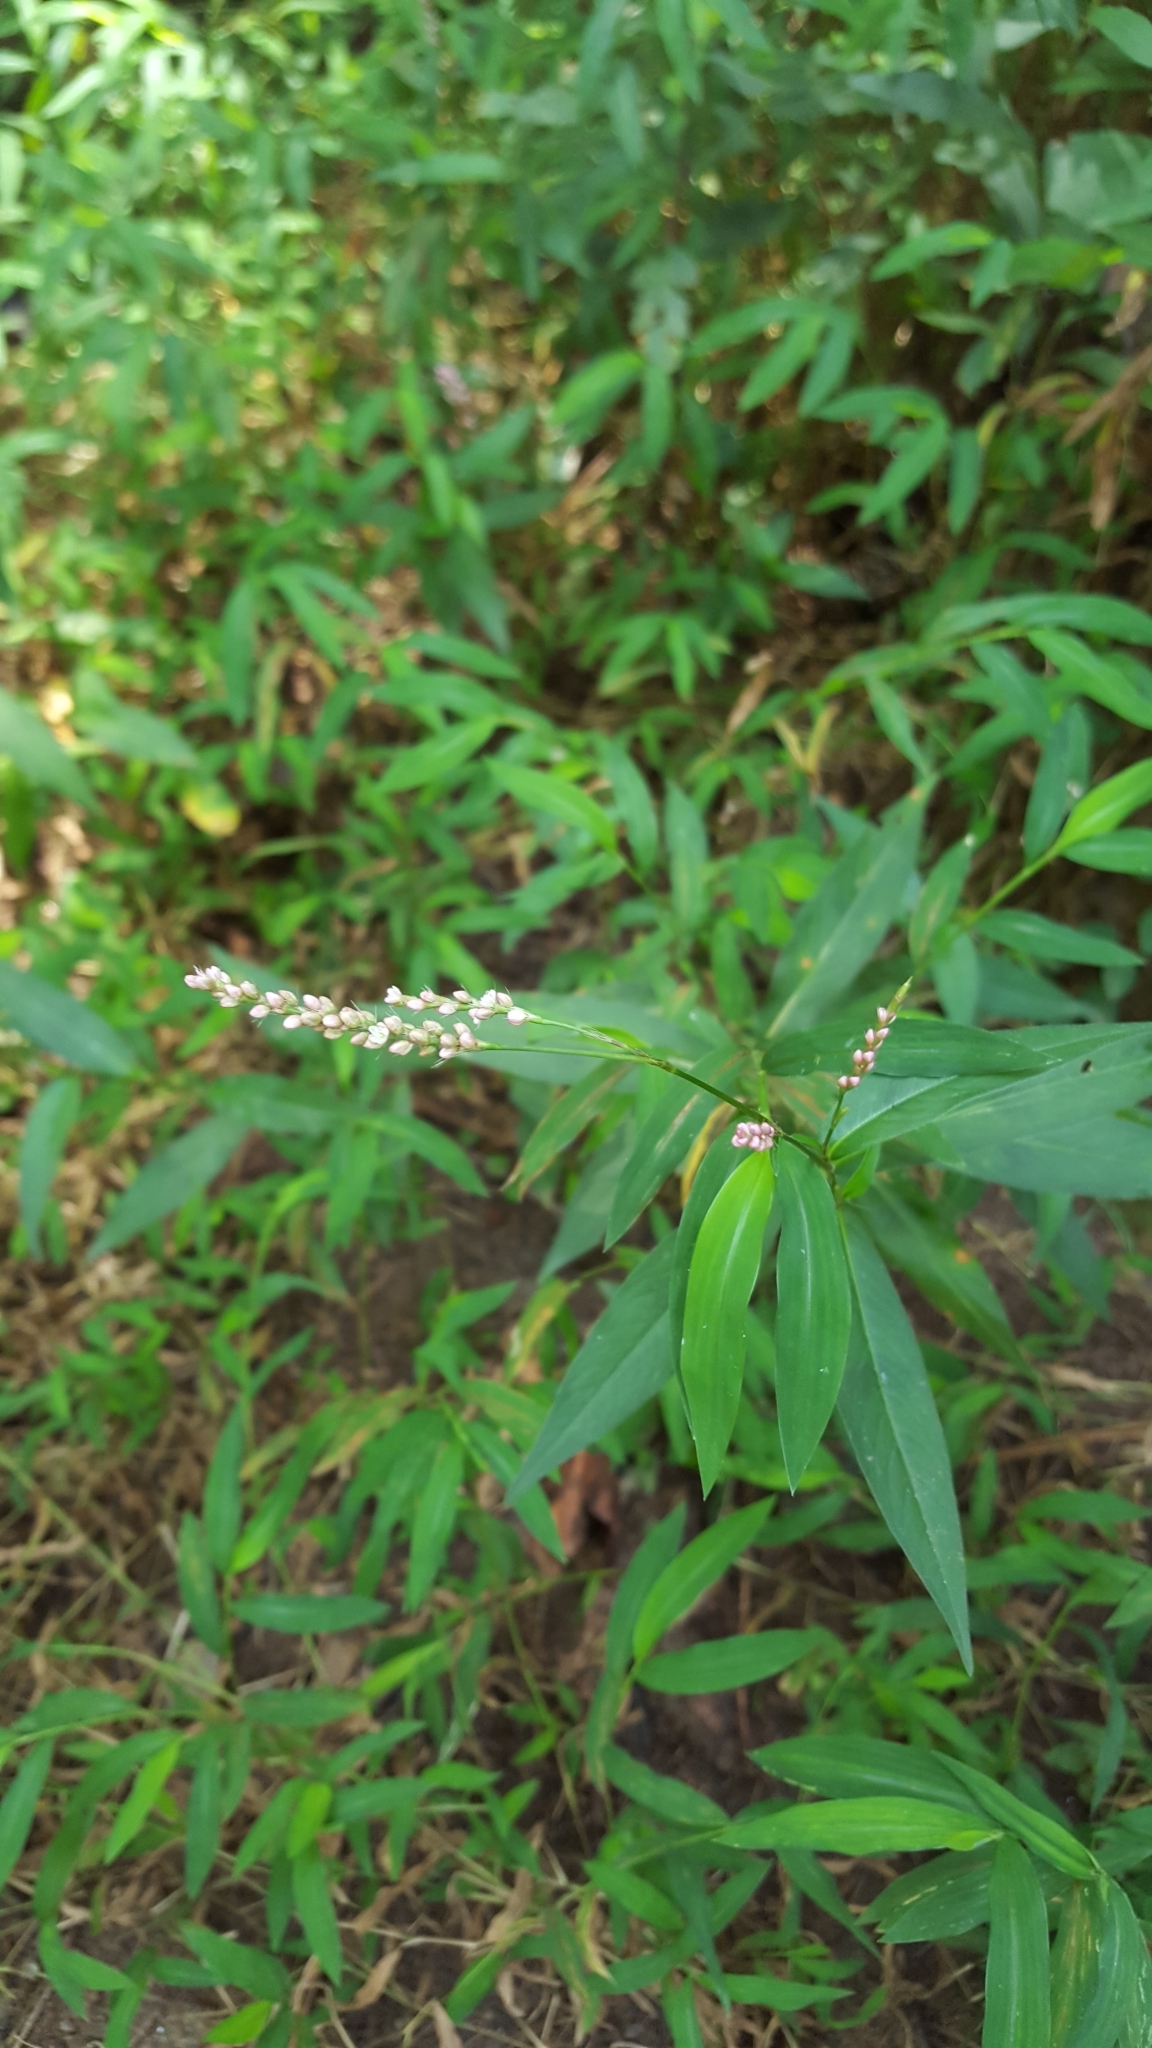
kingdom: Plantae
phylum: Tracheophyta
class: Magnoliopsida
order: Caryophyllales
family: Polygonaceae
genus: Persicaria
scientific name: Persicaria longiseta
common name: Bristly lady's-thumb
